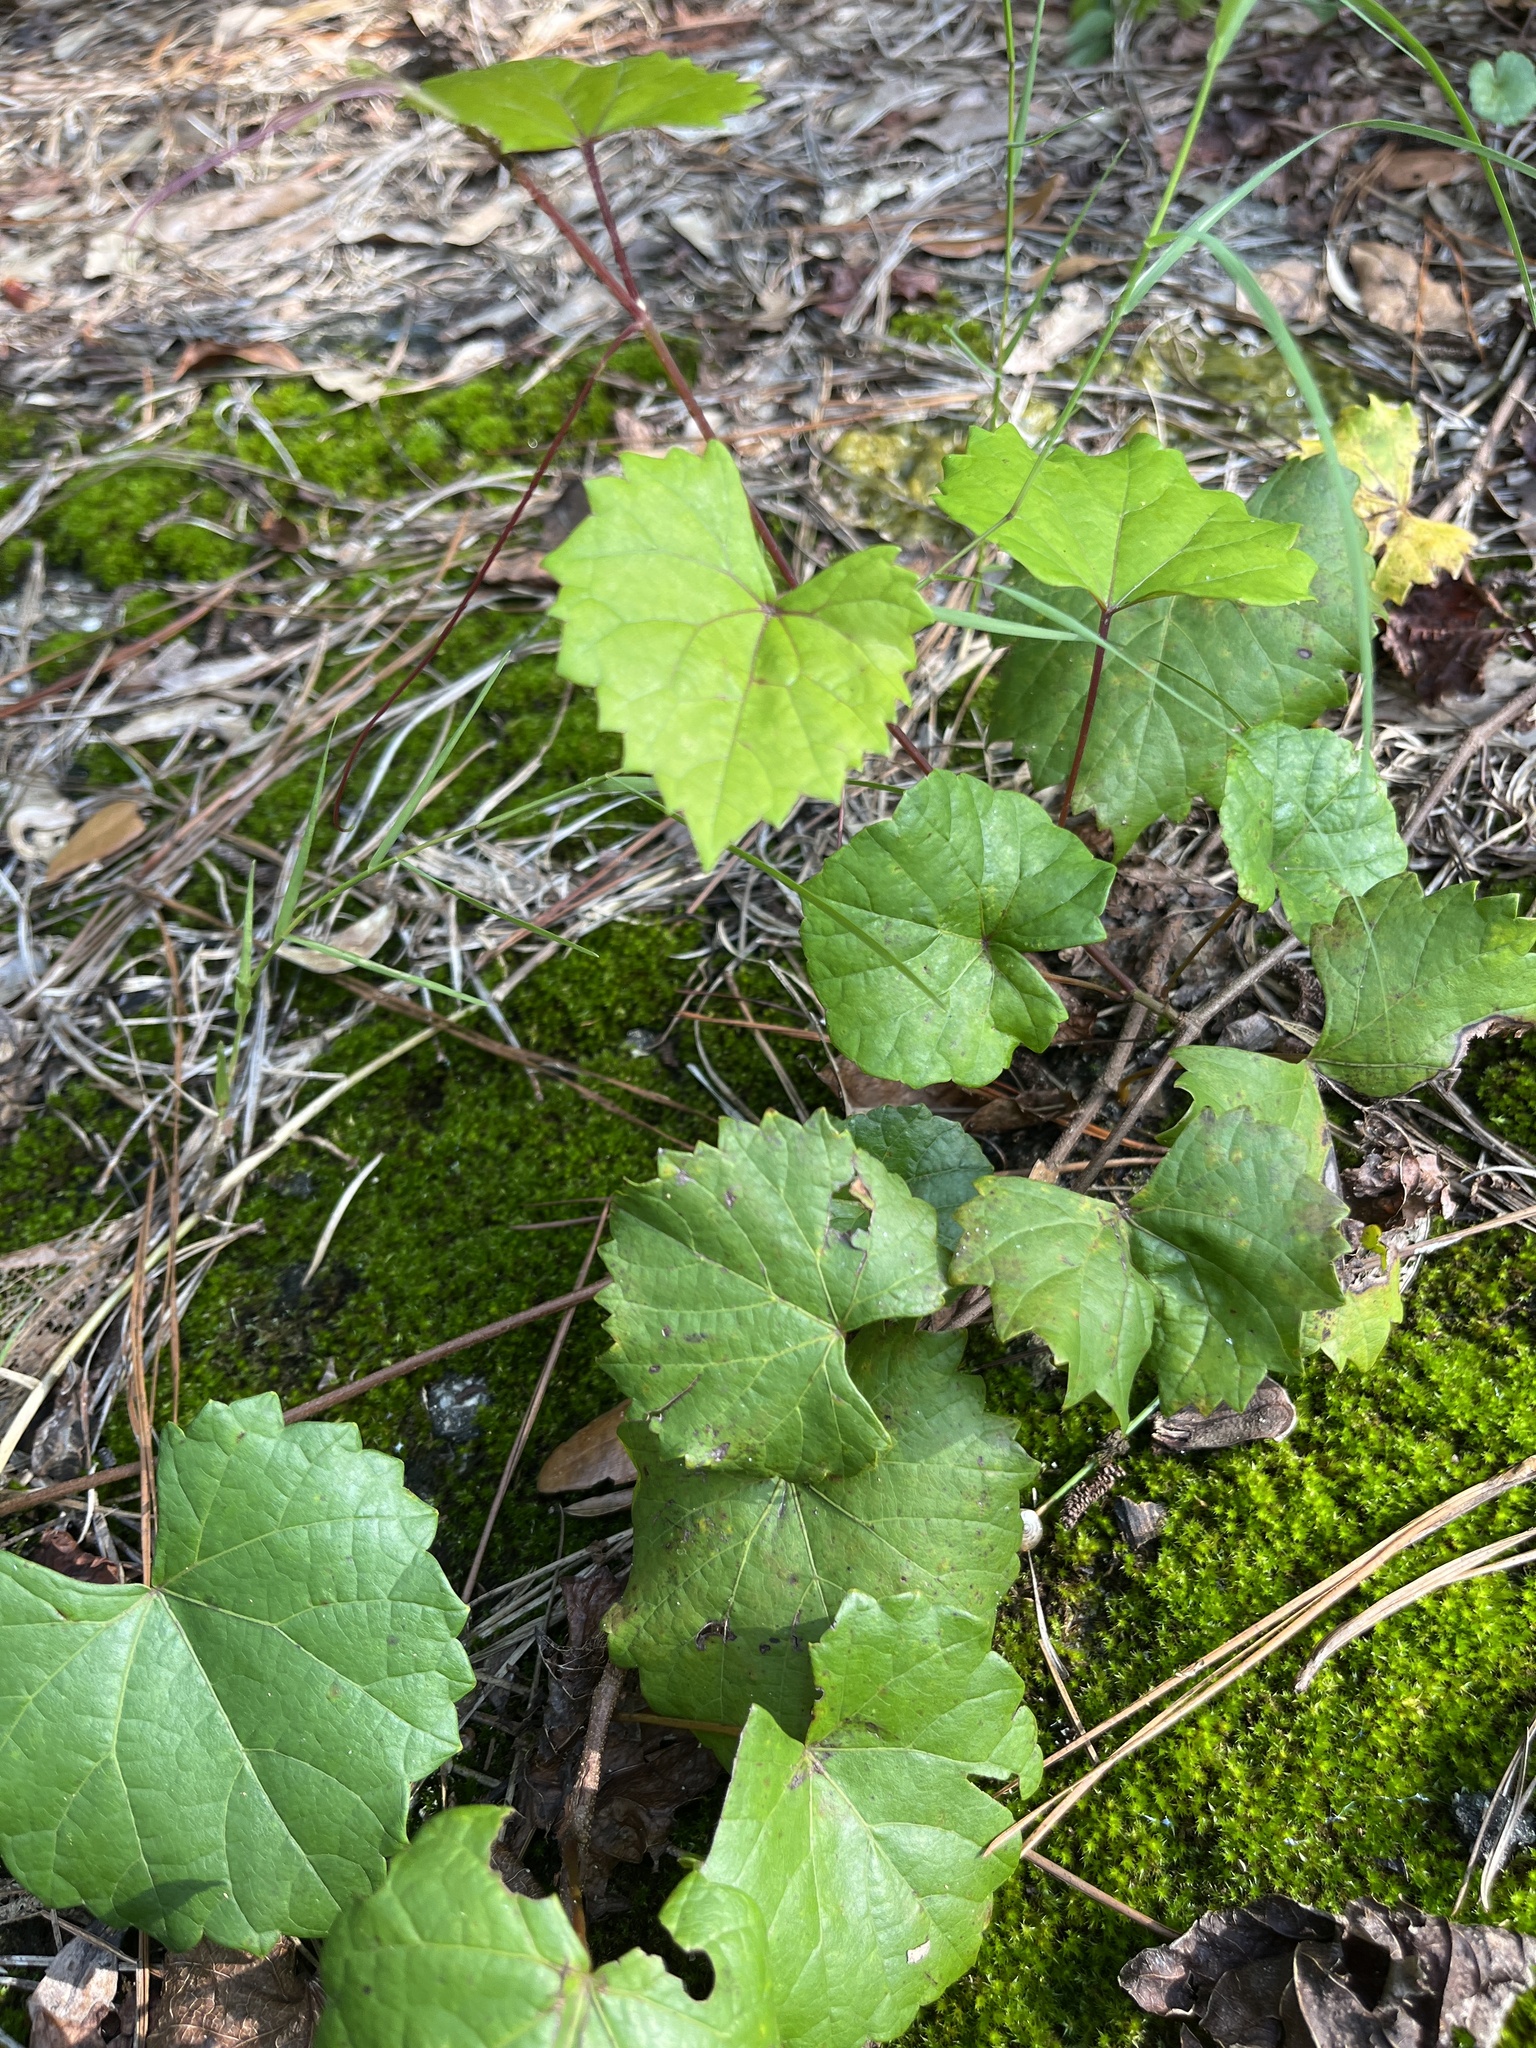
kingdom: Plantae
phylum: Tracheophyta
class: Magnoliopsida
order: Vitales
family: Vitaceae
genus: Vitis
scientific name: Vitis rotundifolia
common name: Muscadine grape
